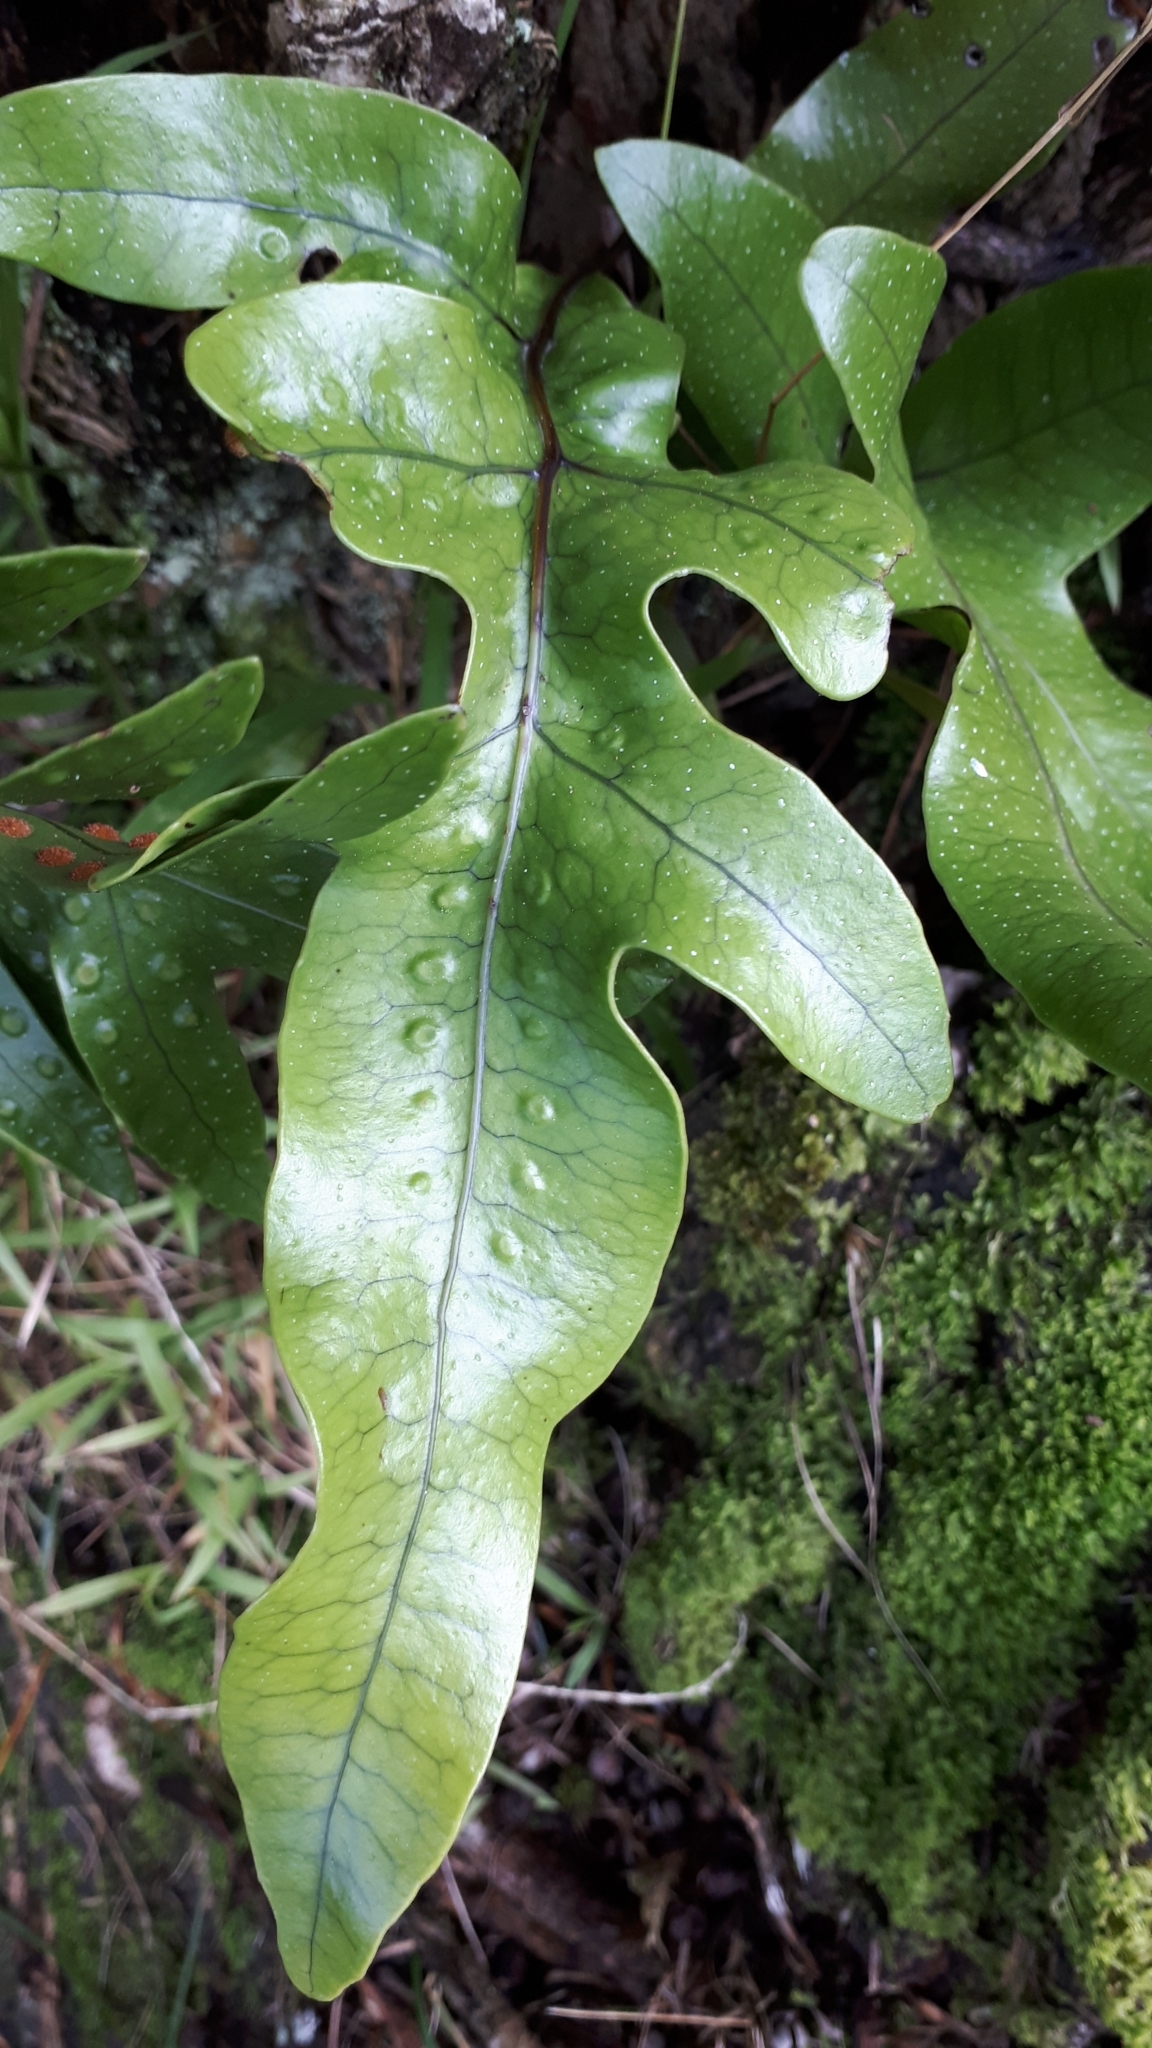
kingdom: Plantae
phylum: Tracheophyta
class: Polypodiopsida
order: Polypodiales
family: Polypodiaceae
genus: Lecanopteris
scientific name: Lecanopteris pustulata
